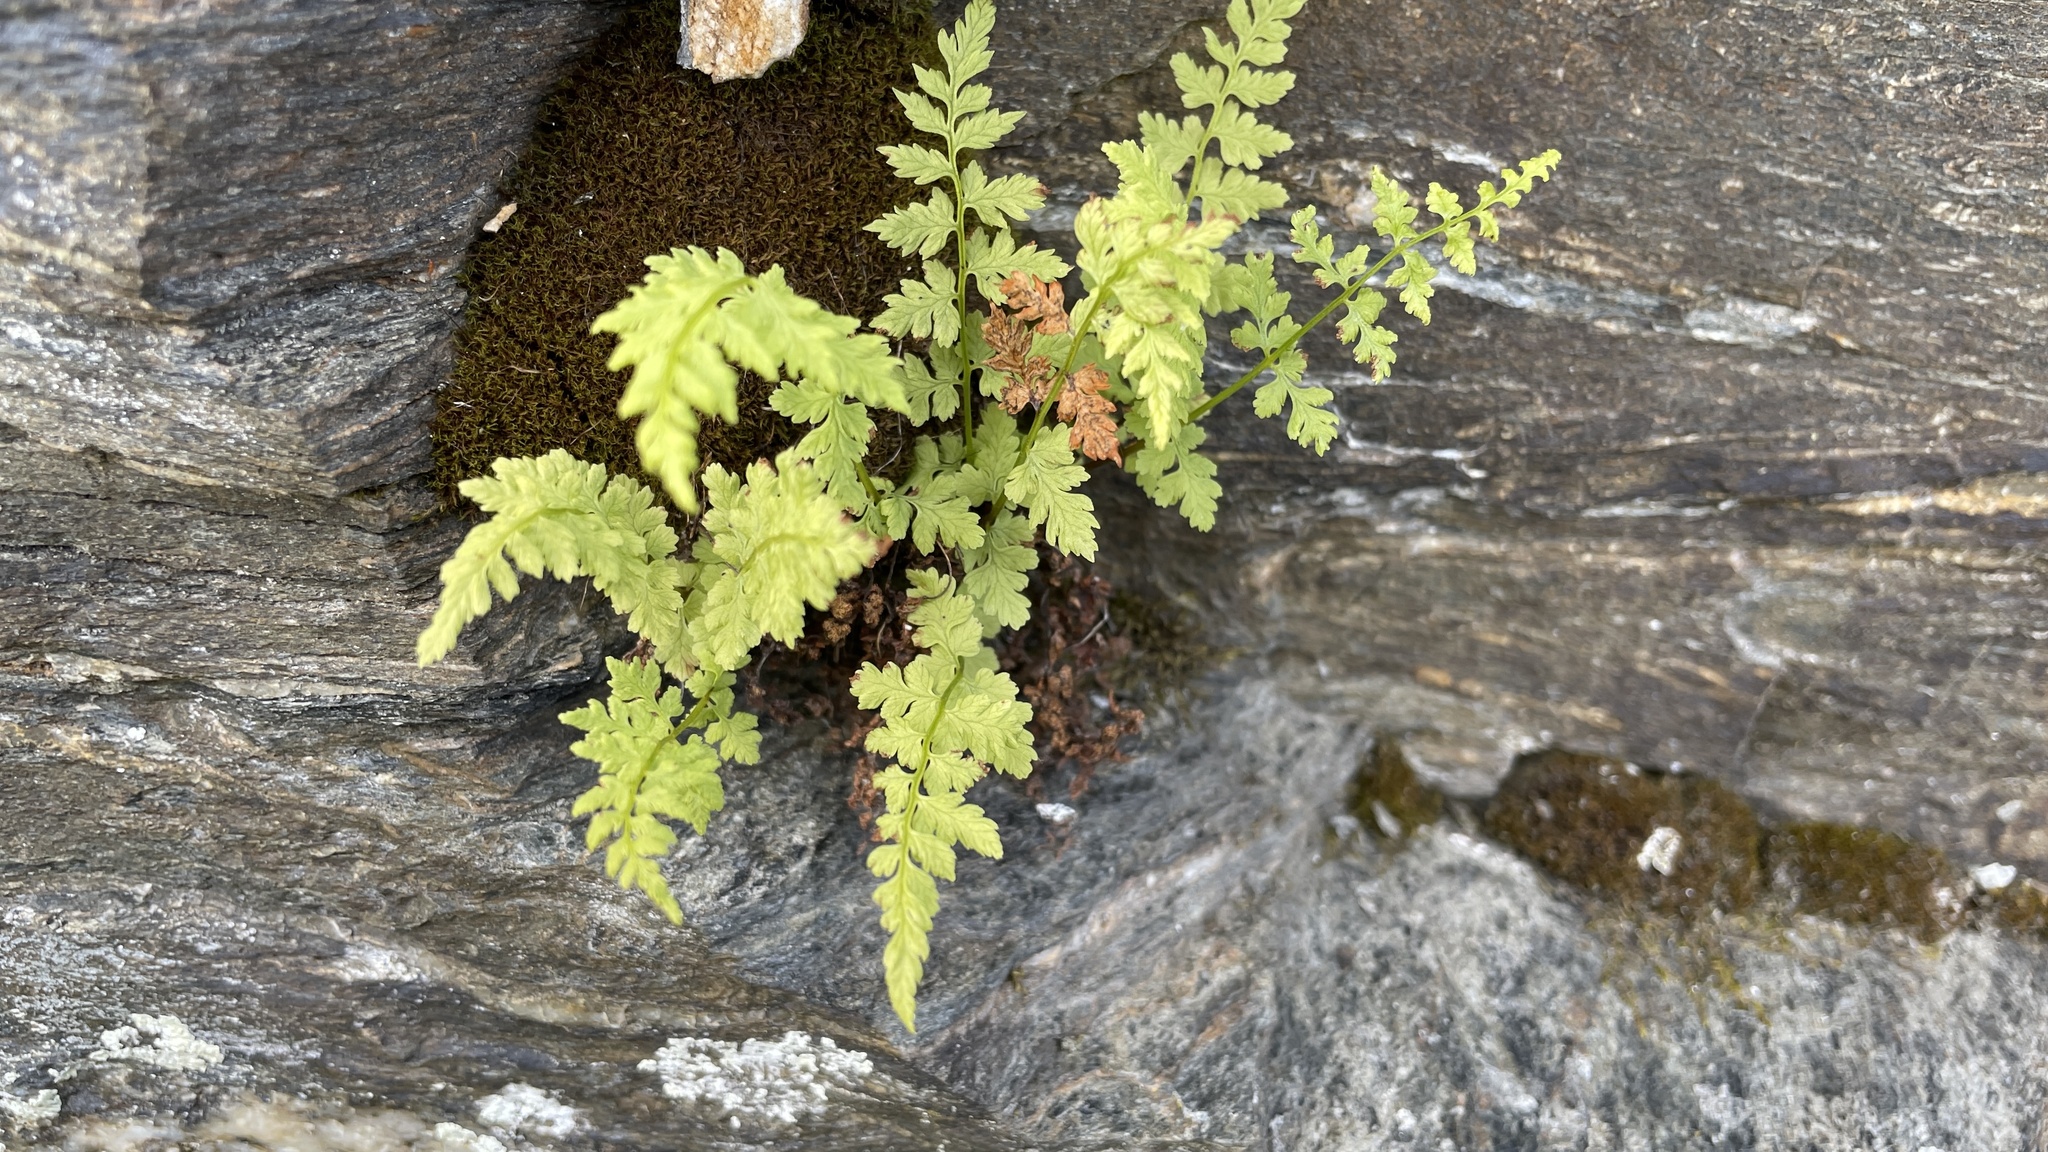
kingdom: Plantae
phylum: Tracheophyta
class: Polypodiopsida
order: Polypodiales
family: Cystopteridaceae
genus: Cystopteris
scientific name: Cystopteris fragilis
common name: Brittle bladder fern
